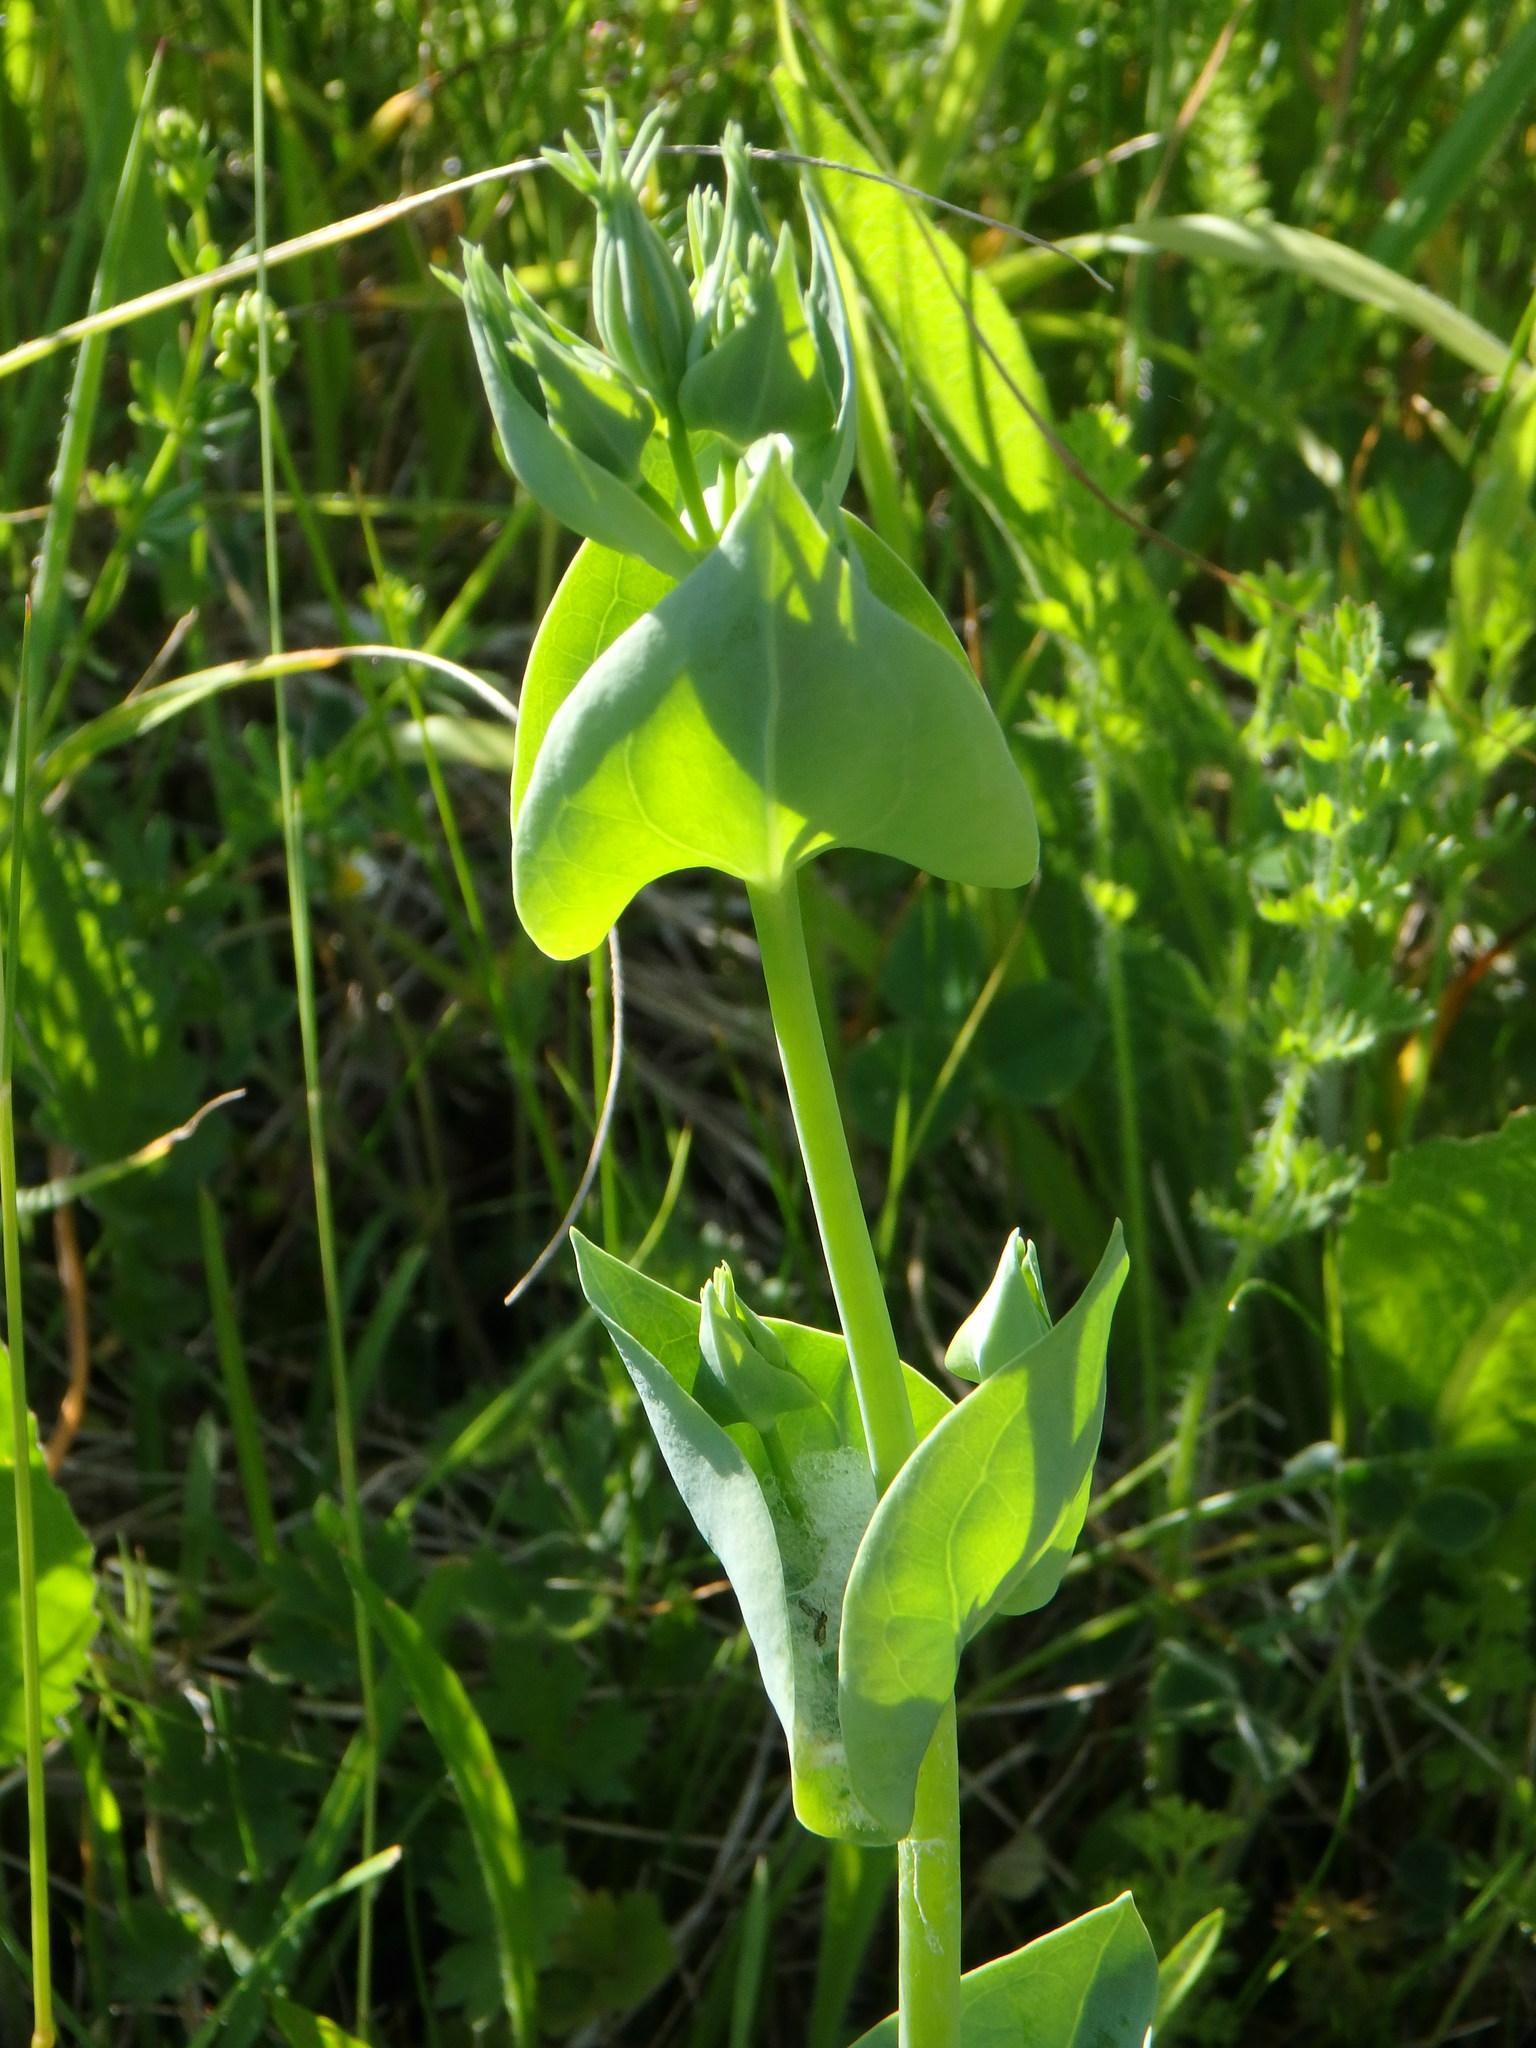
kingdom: Plantae
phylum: Tracheophyta
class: Magnoliopsida
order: Gentianales
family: Gentianaceae
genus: Blackstonia
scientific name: Blackstonia perfoliata
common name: Yellow-wort
